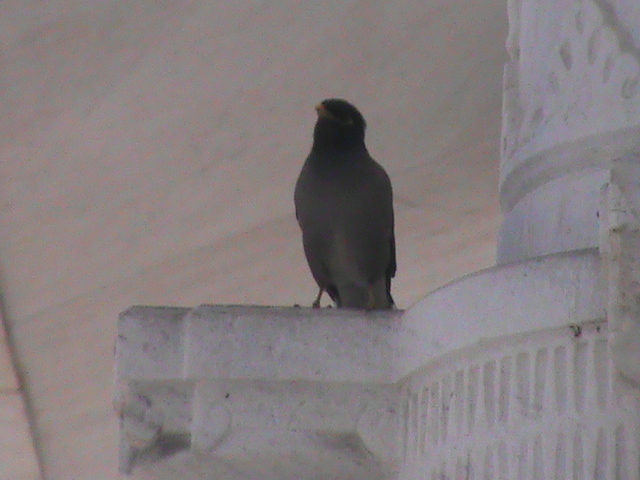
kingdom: Animalia
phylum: Chordata
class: Aves
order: Passeriformes
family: Sturnidae
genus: Acridotheres
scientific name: Acridotheres tristis
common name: Common myna
